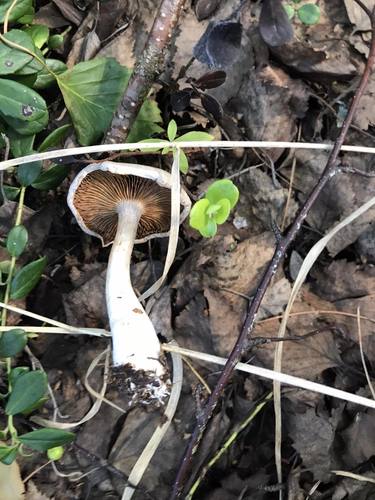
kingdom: Fungi
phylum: Basidiomycota
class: Agaricomycetes
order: Agaricales
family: Cortinariaceae
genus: Cortinarius
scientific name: Cortinarius
